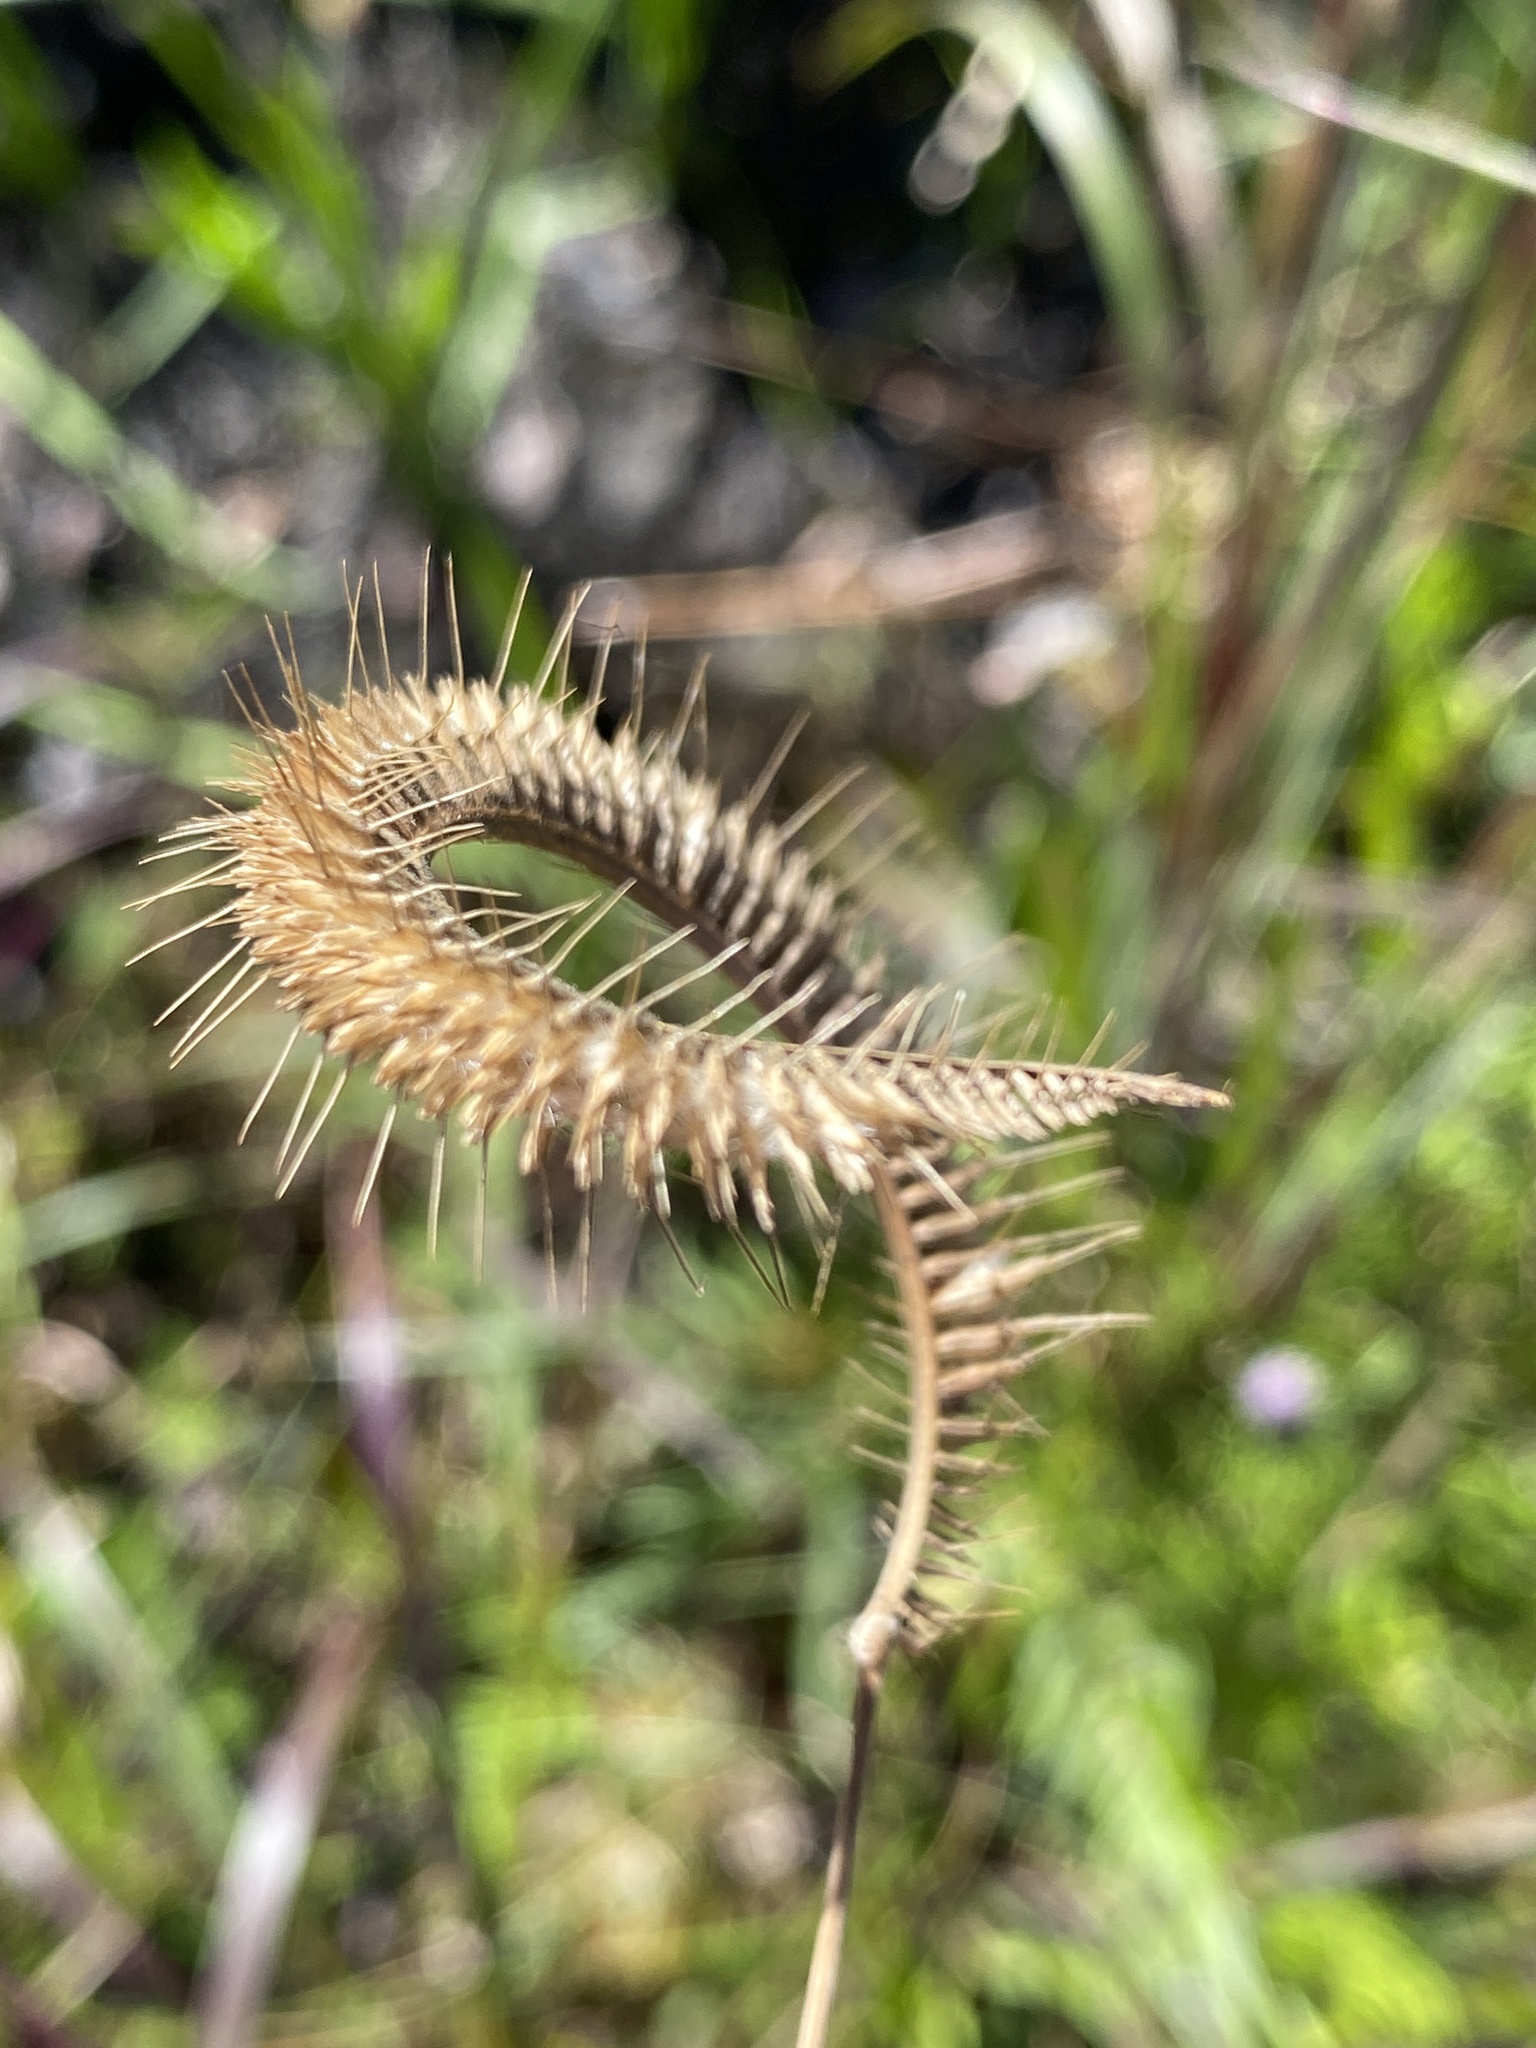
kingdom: Plantae
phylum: Tracheophyta
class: Liliopsida
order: Poales
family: Poaceae
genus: Ctenium
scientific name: Ctenium aromaticum
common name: Toothache grass
